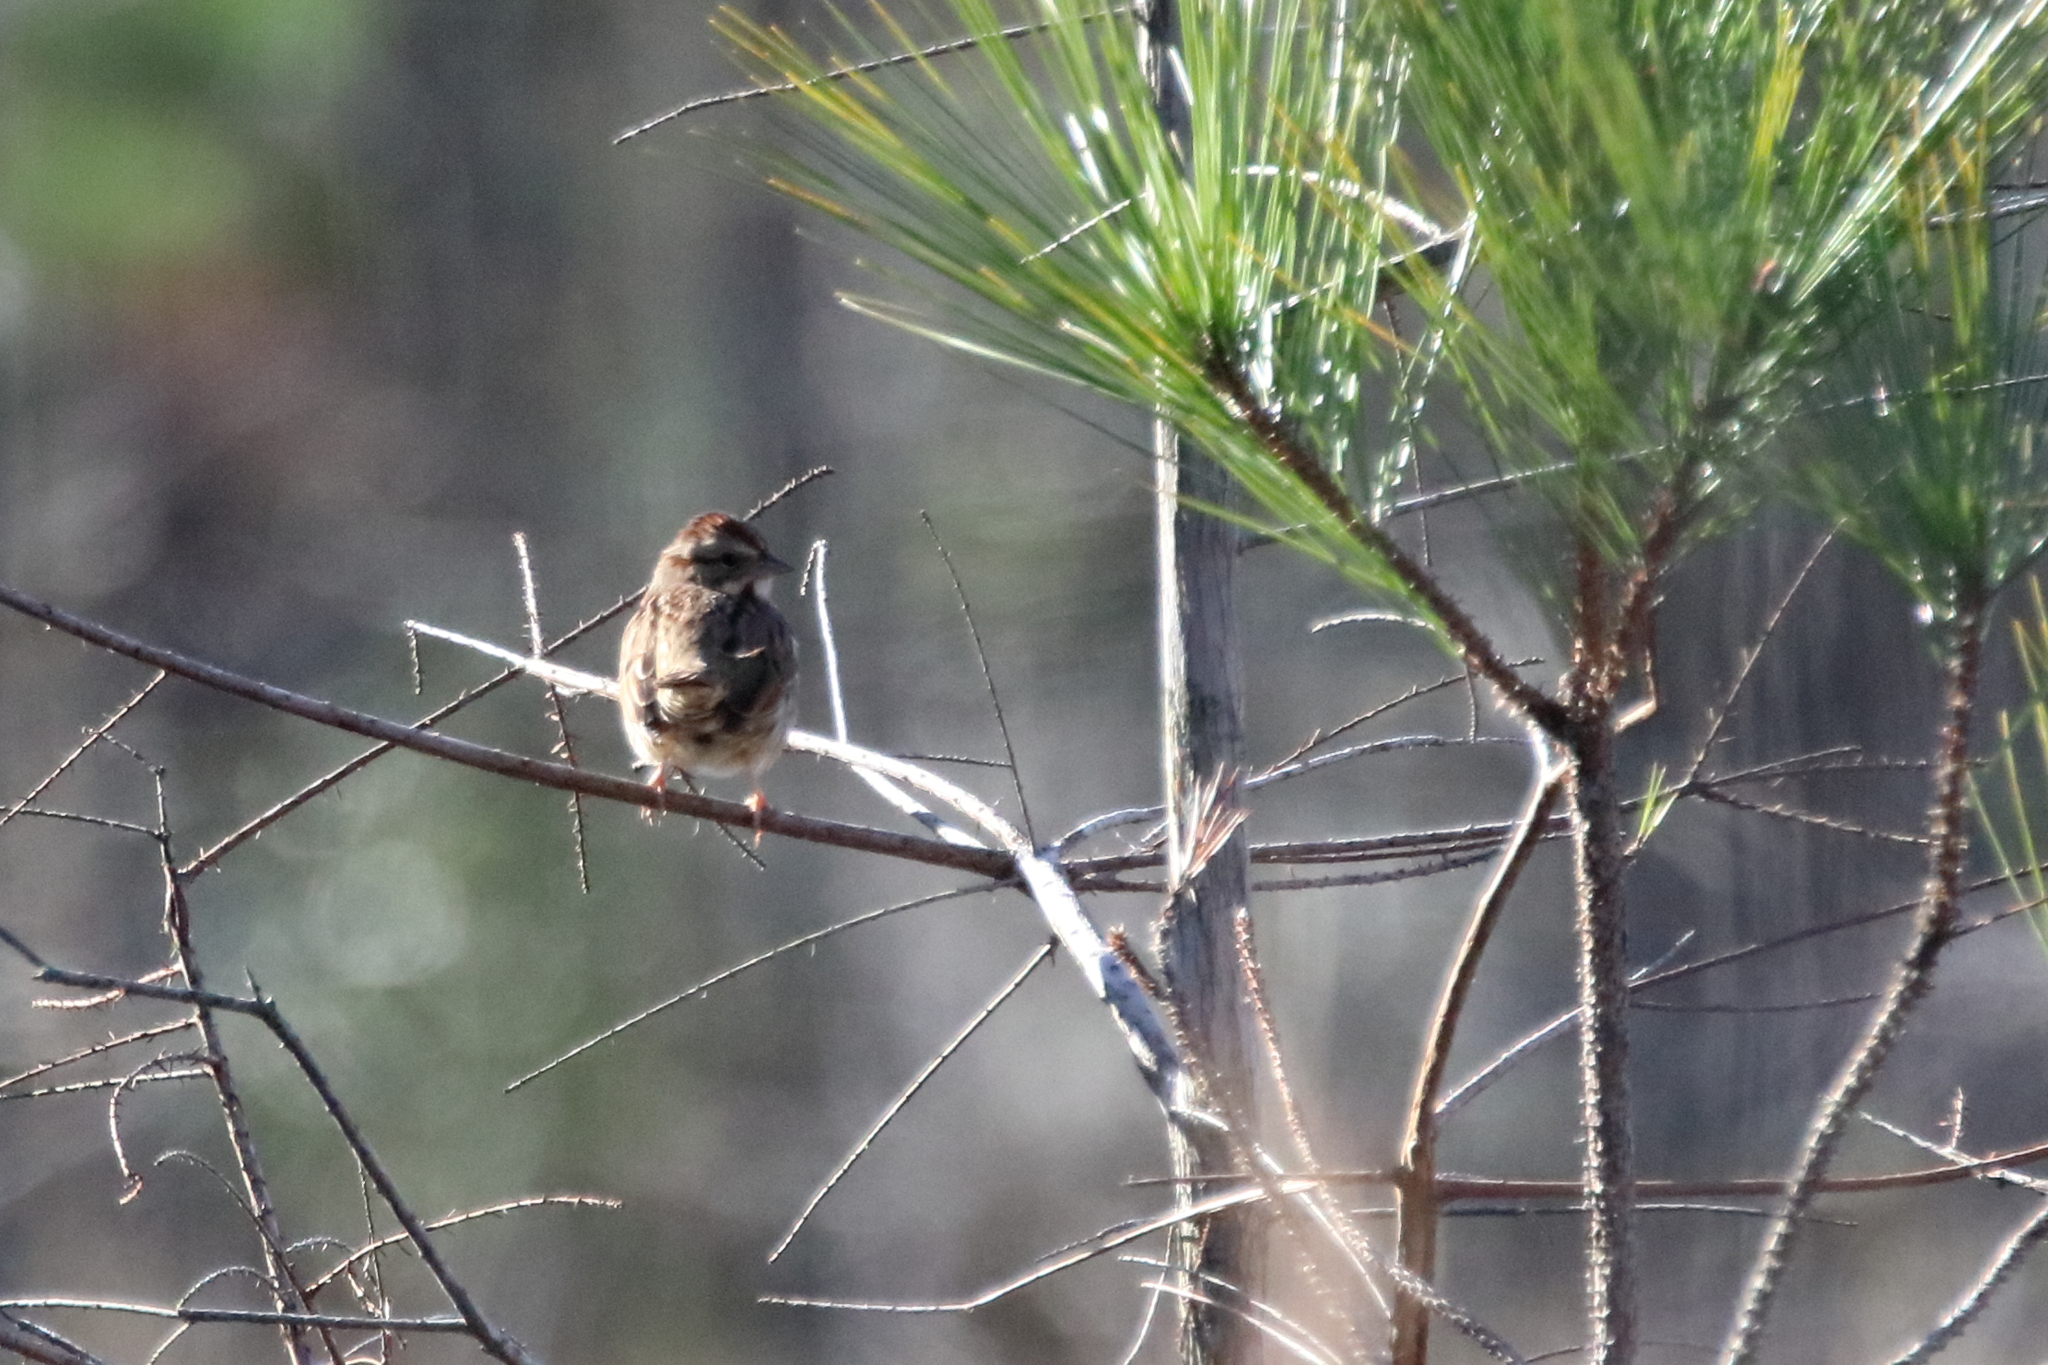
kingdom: Animalia
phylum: Chordata
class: Aves
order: Passeriformes
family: Passerellidae
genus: Melospiza
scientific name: Melospiza melodia
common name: Song sparrow
